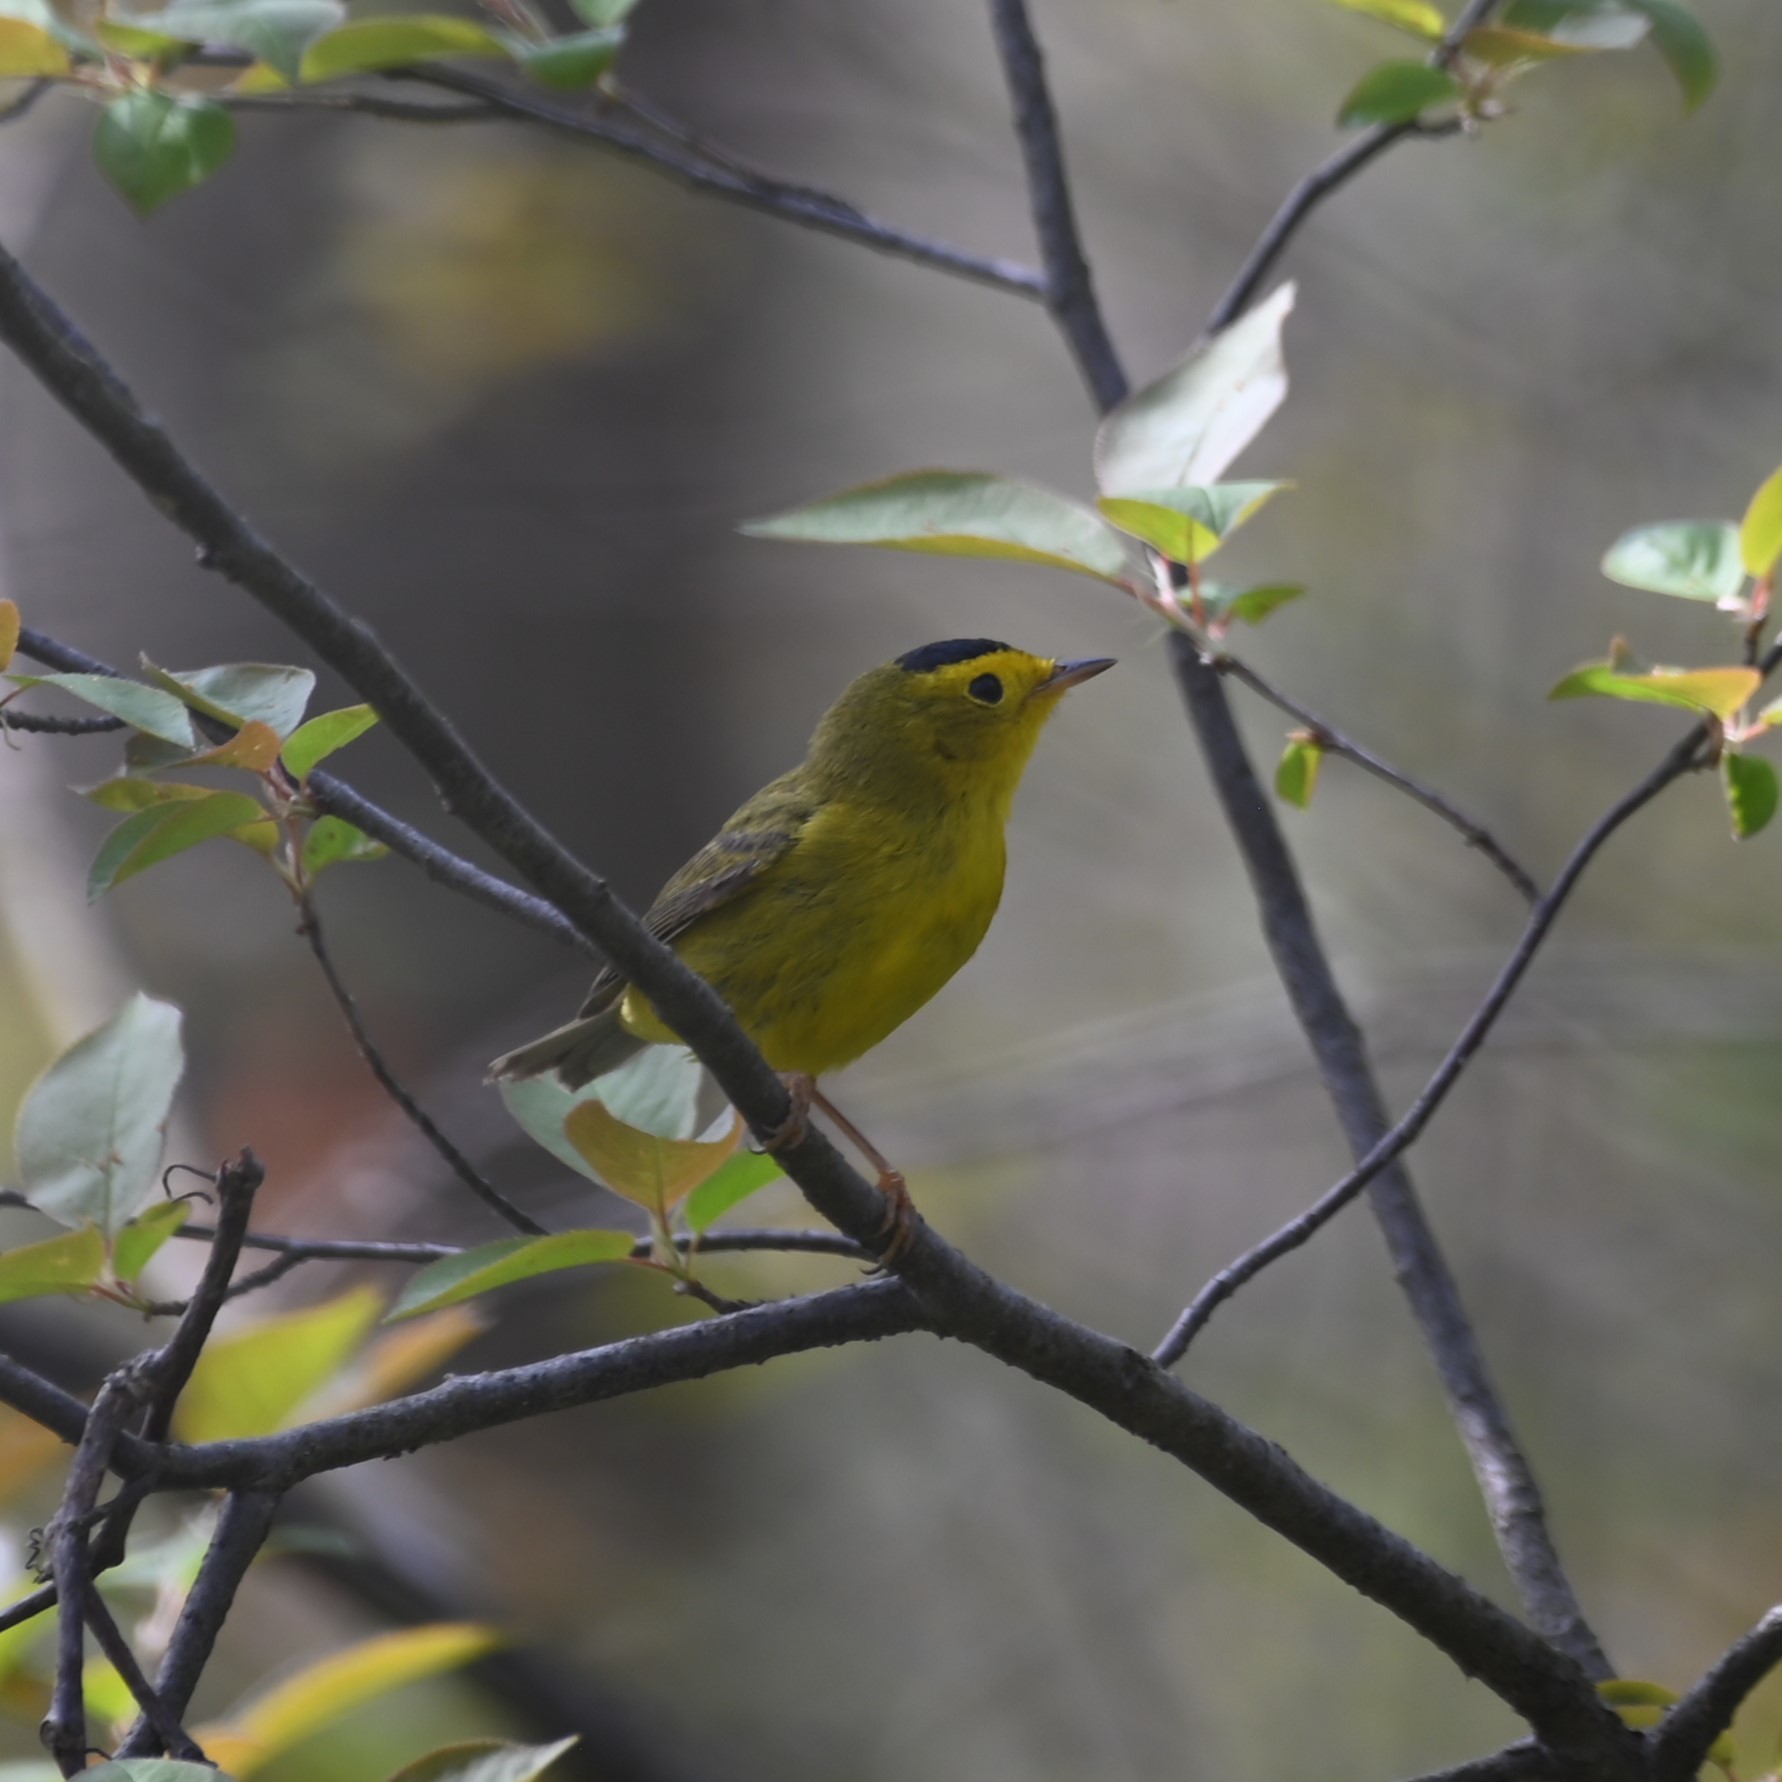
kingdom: Animalia
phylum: Chordata
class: Aves
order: Passeriformes
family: Parulidae
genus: Cardellina
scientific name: Cardellina pusilla
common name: Wilson's warbler
